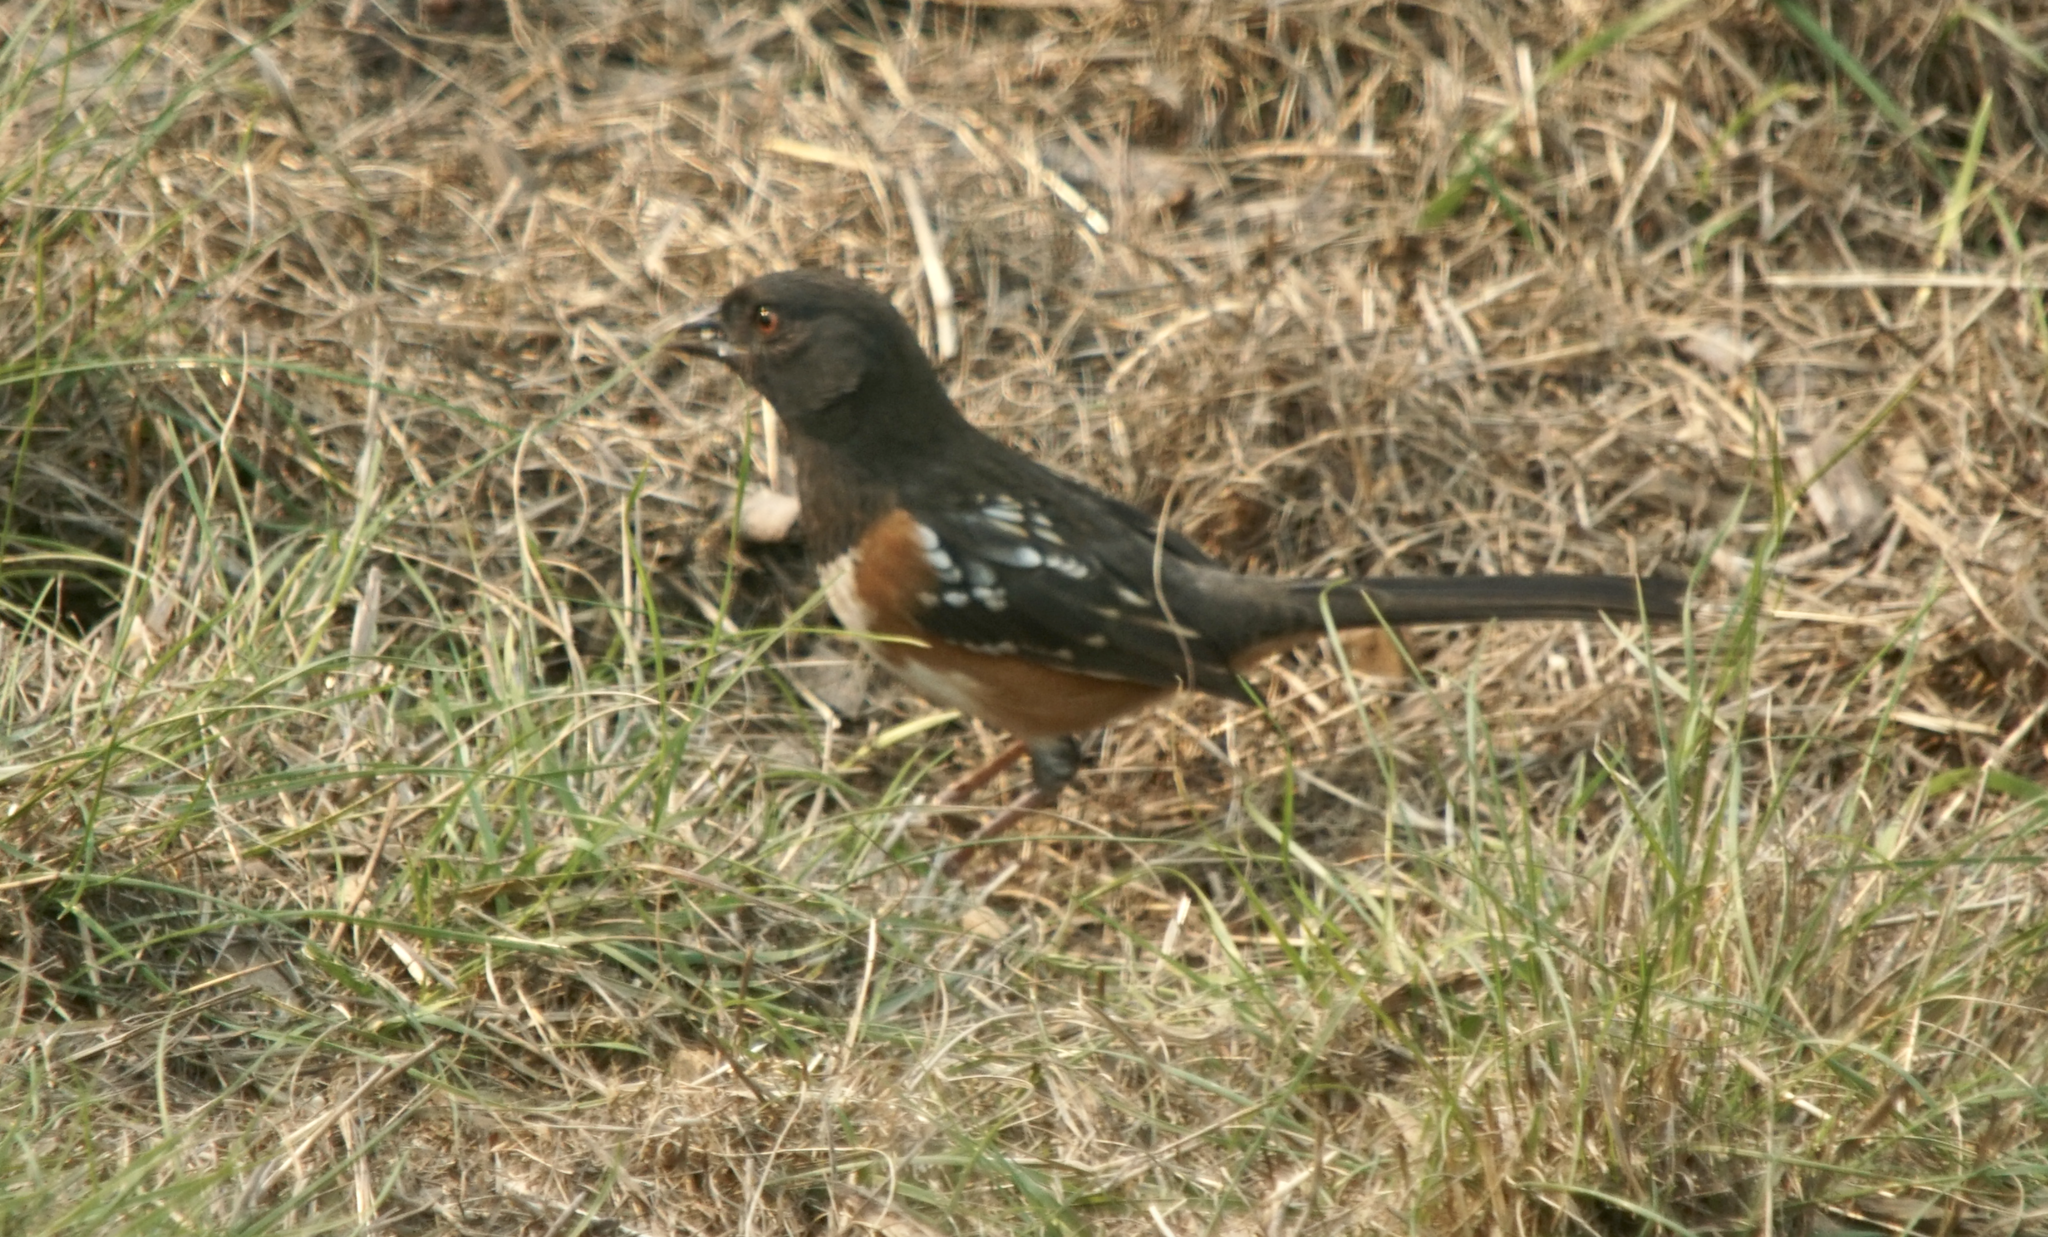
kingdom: Animalia
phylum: Chordata
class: Aves
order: Passeriformes
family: Passerellidae
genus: Pipilo
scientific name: Pipilo maculatus
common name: Spotted towhee
